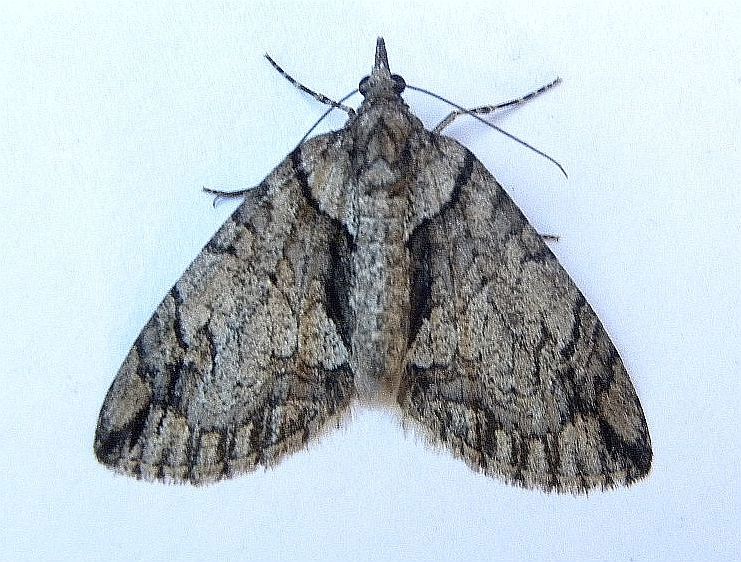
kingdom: Animalia
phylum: Arthropoda
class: Insecta
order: Lepidoptera
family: Geometridae
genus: Hydriomena
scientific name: Hydriomena chiricahuata
